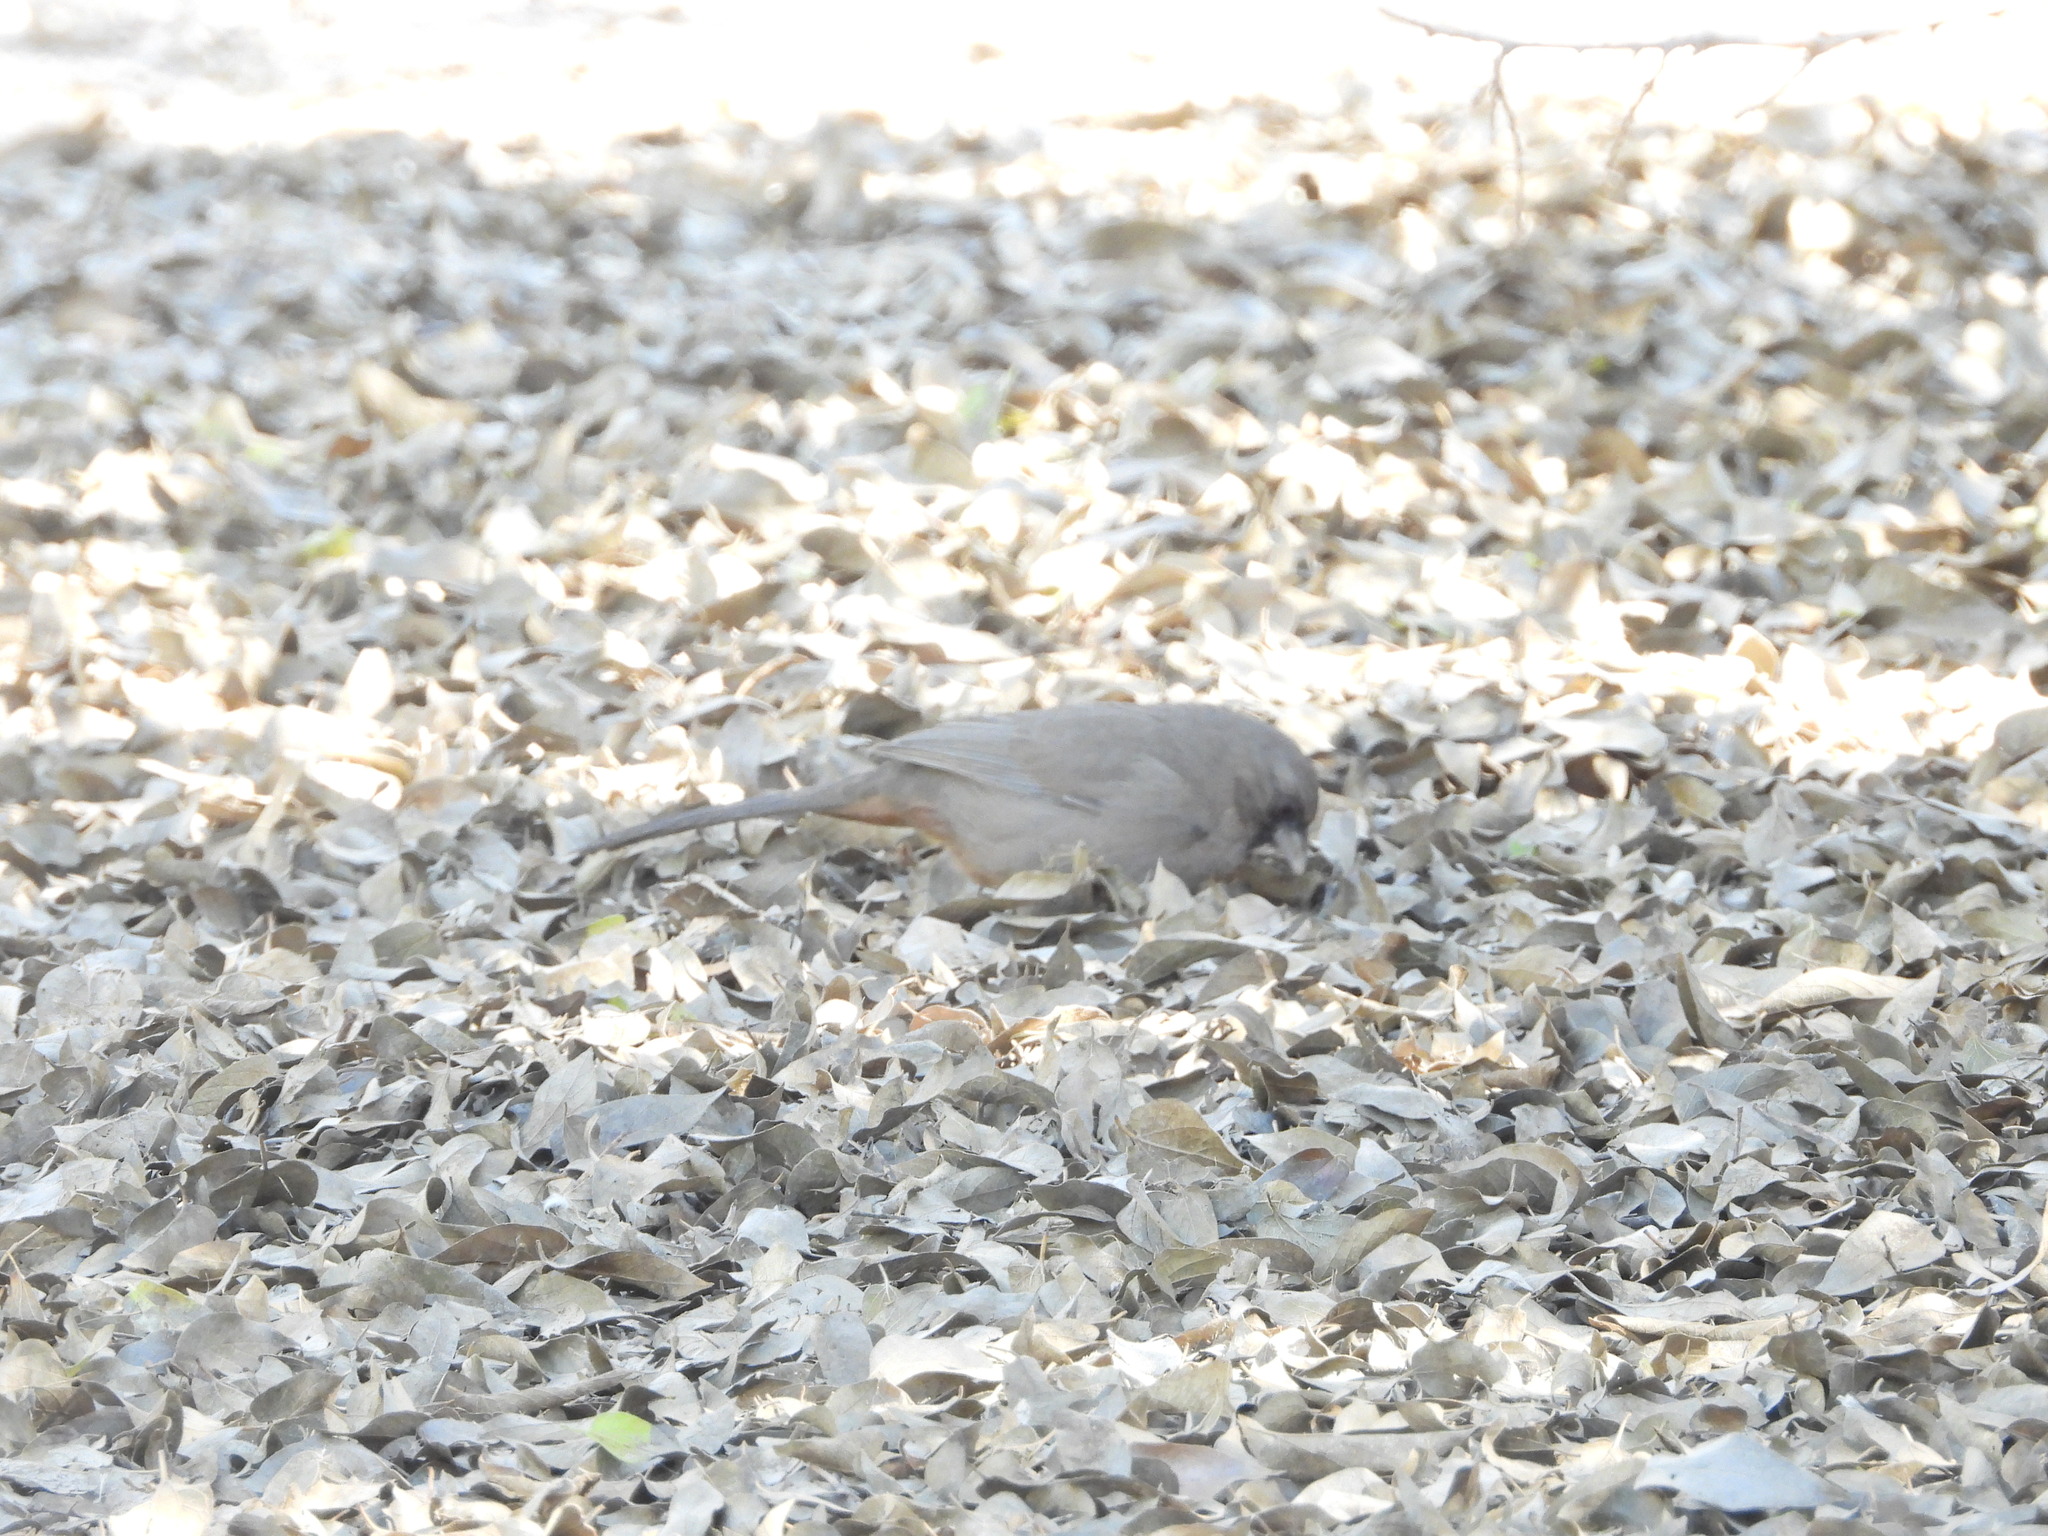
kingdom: Animalia
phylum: Chordata
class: Aves
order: Passeriformes
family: Passerellidae
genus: Melozone
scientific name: Melozone aberti
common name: Abert's towhee
